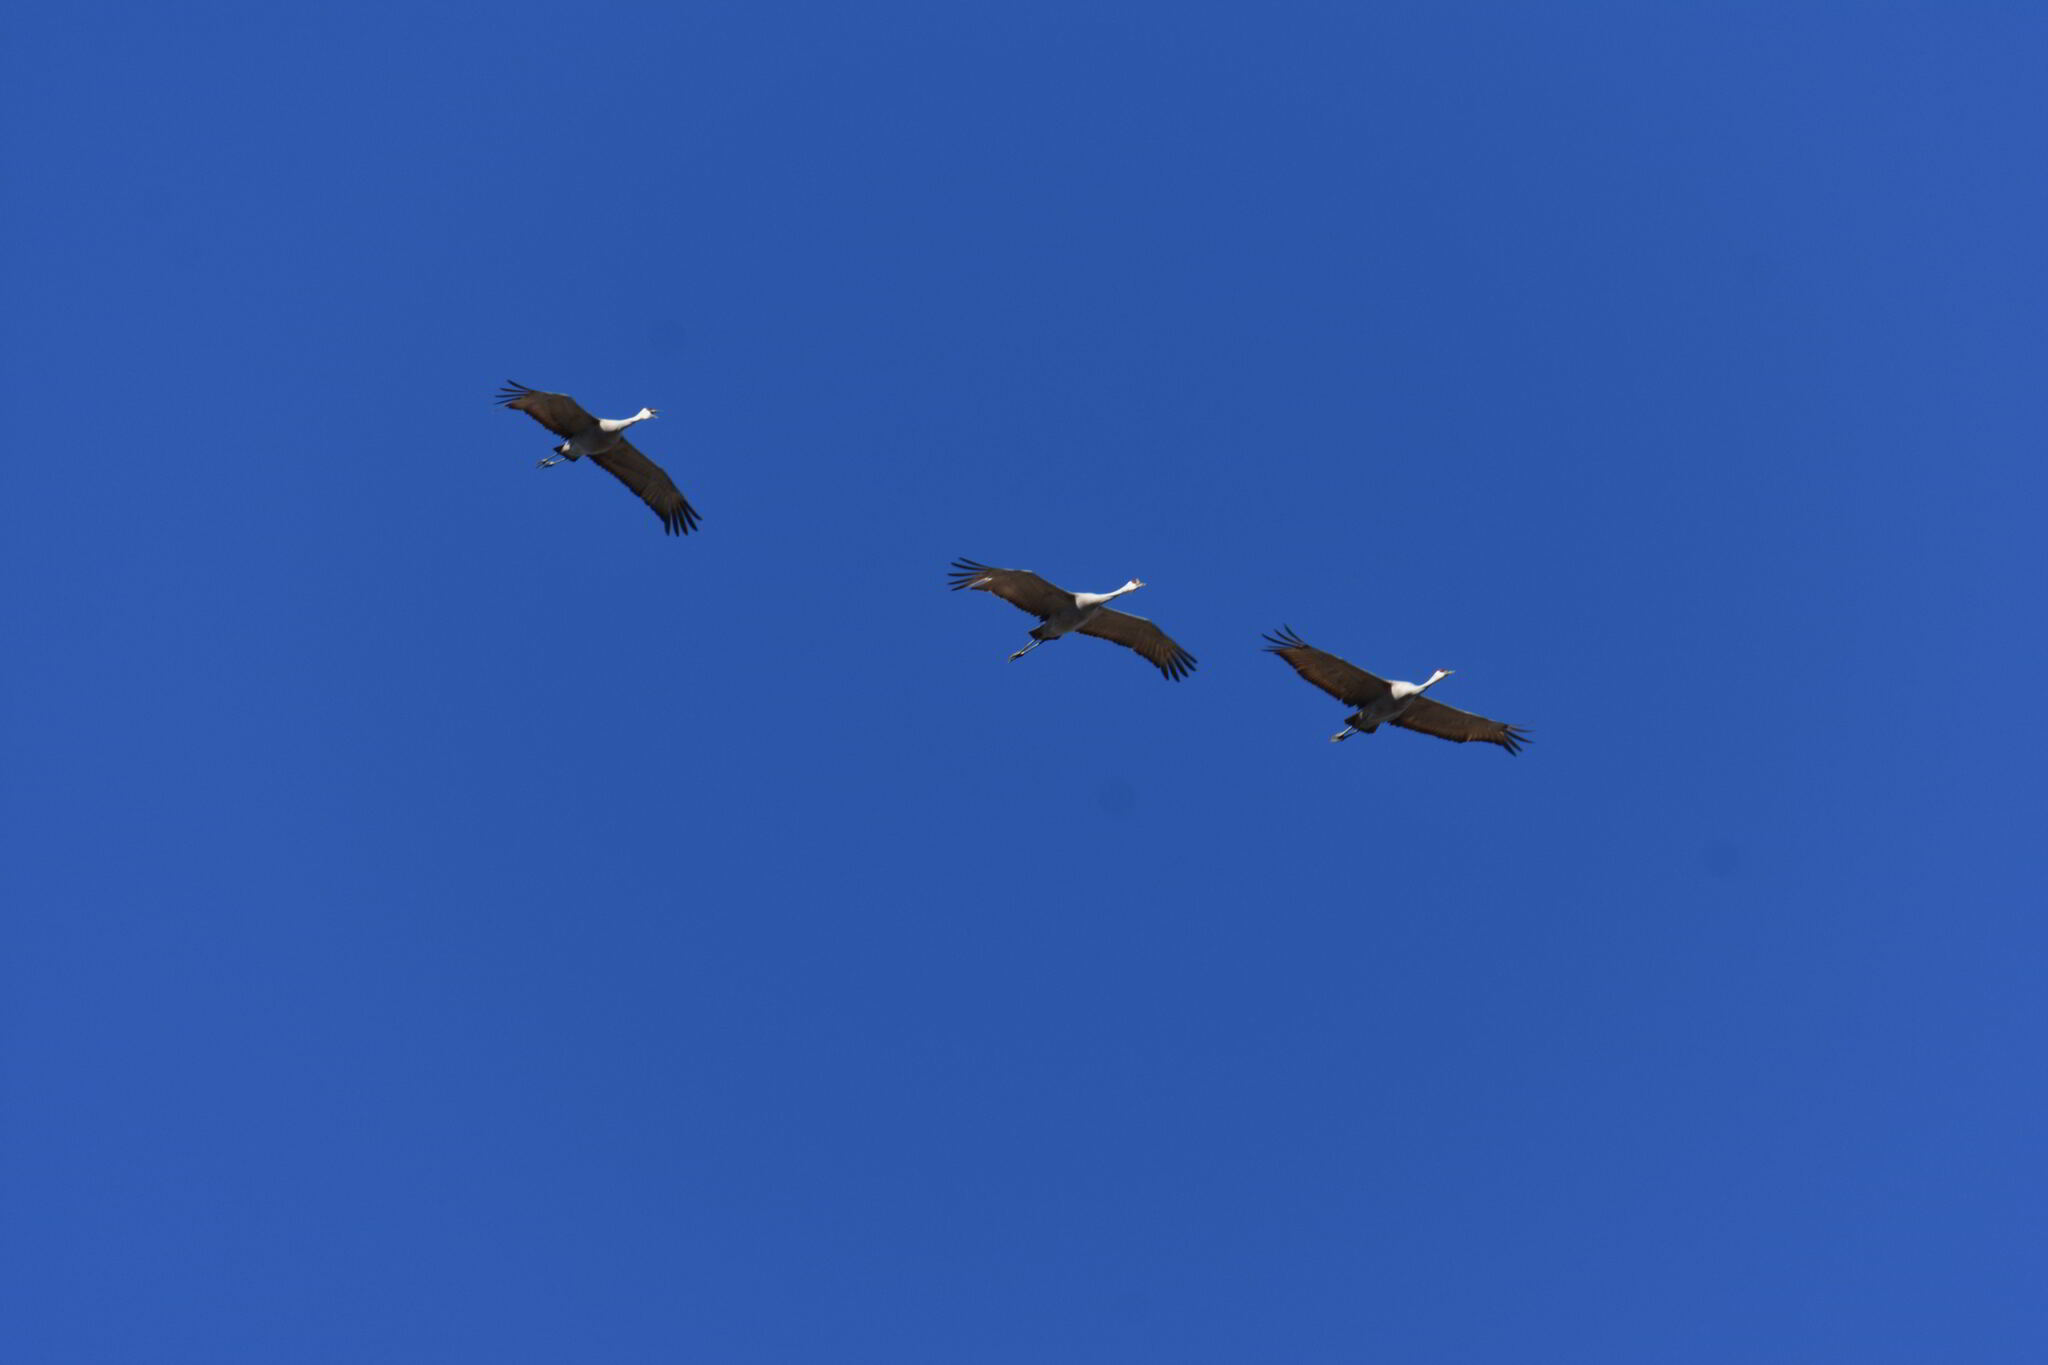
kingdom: Animalia
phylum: Chordata
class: Aves
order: Gruiformes
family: Gruidae
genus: Grus
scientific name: Grus canadensis
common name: Sandhill crane
